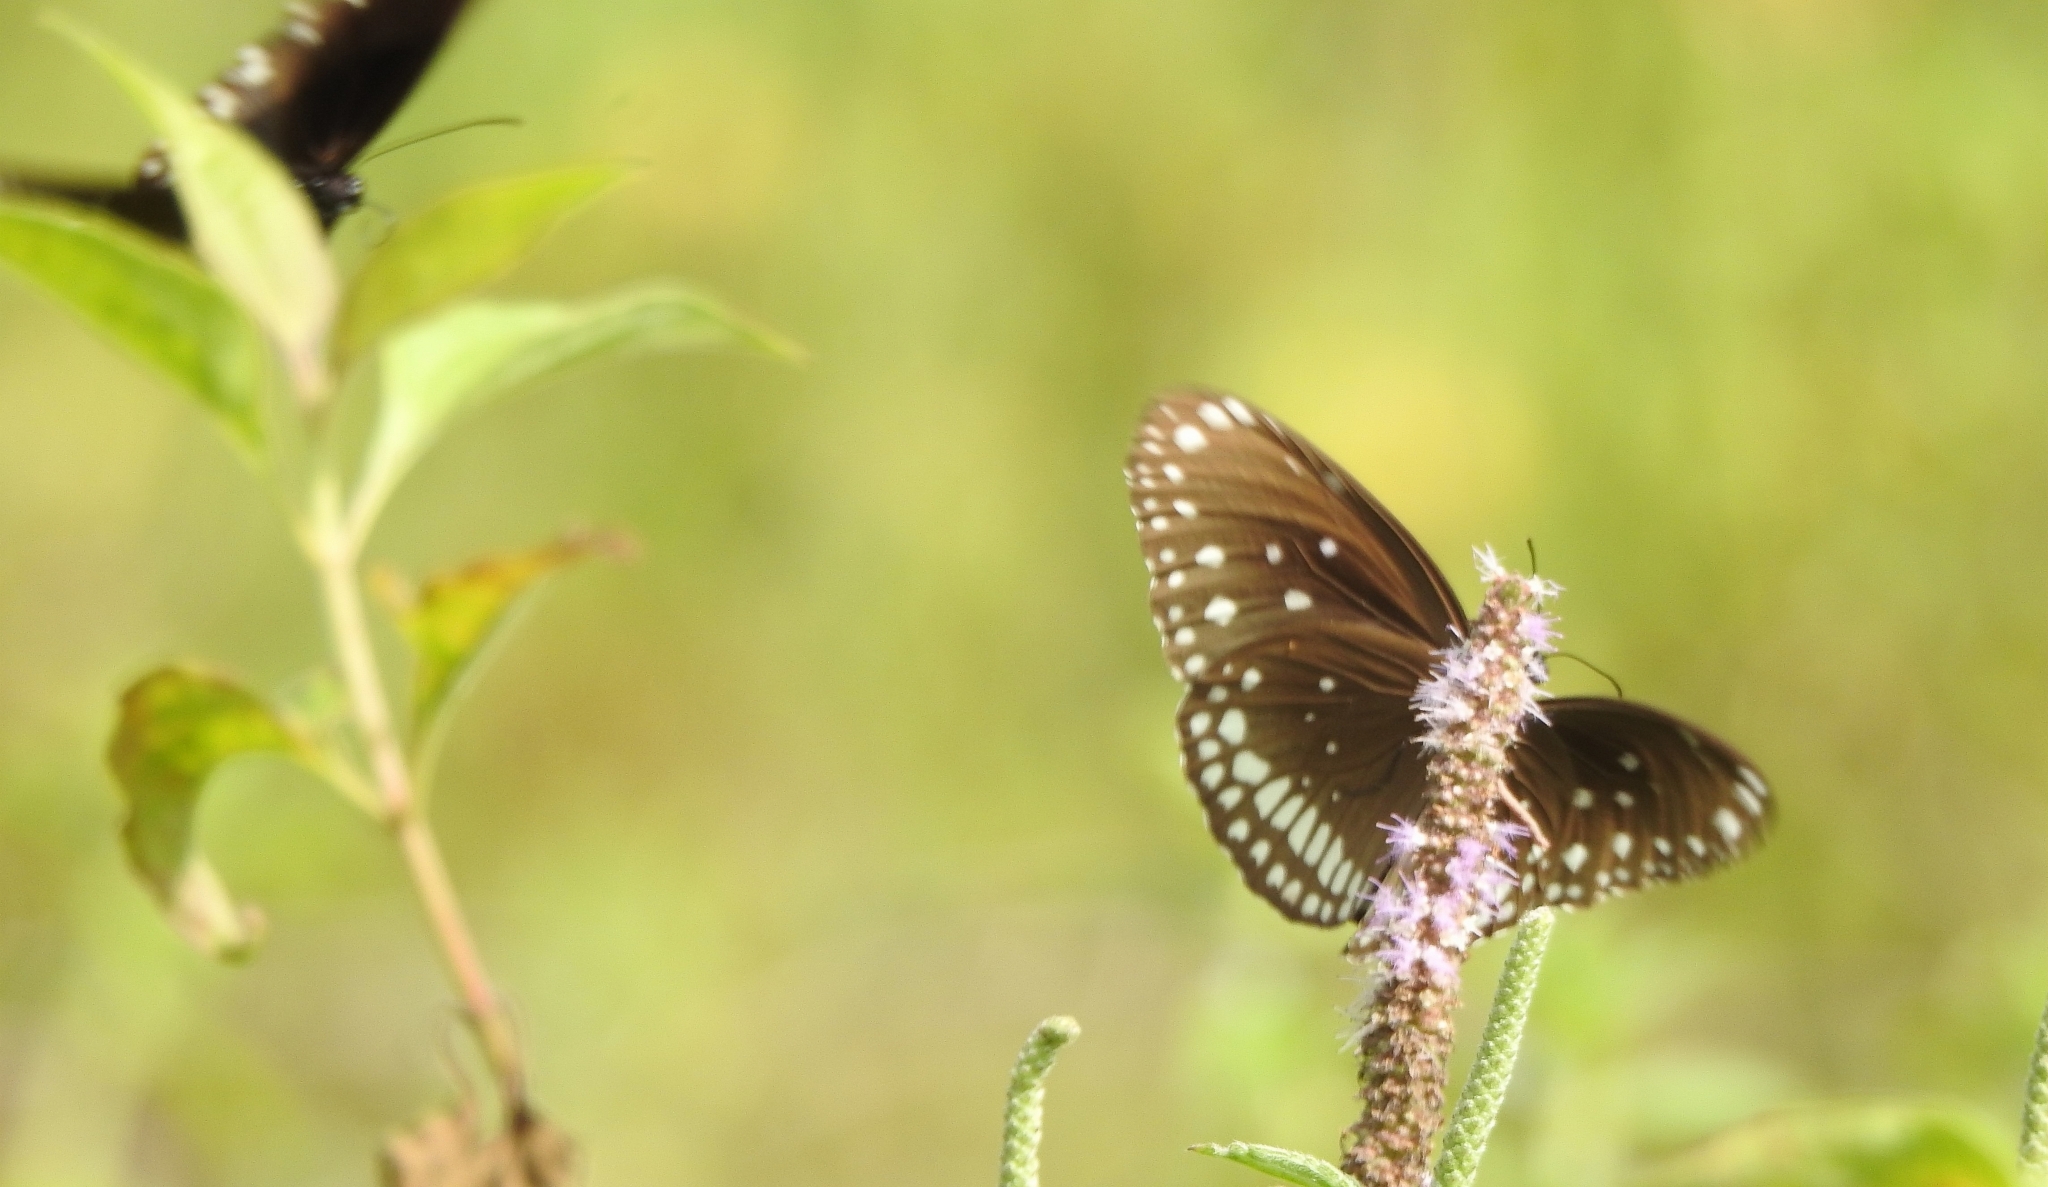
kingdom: Animalia
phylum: Arthropoda
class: Insecta
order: Lepidoptera
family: Nymphalidae
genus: Euploea
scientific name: Euploea sylvester
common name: Double-branded crow butterfly
